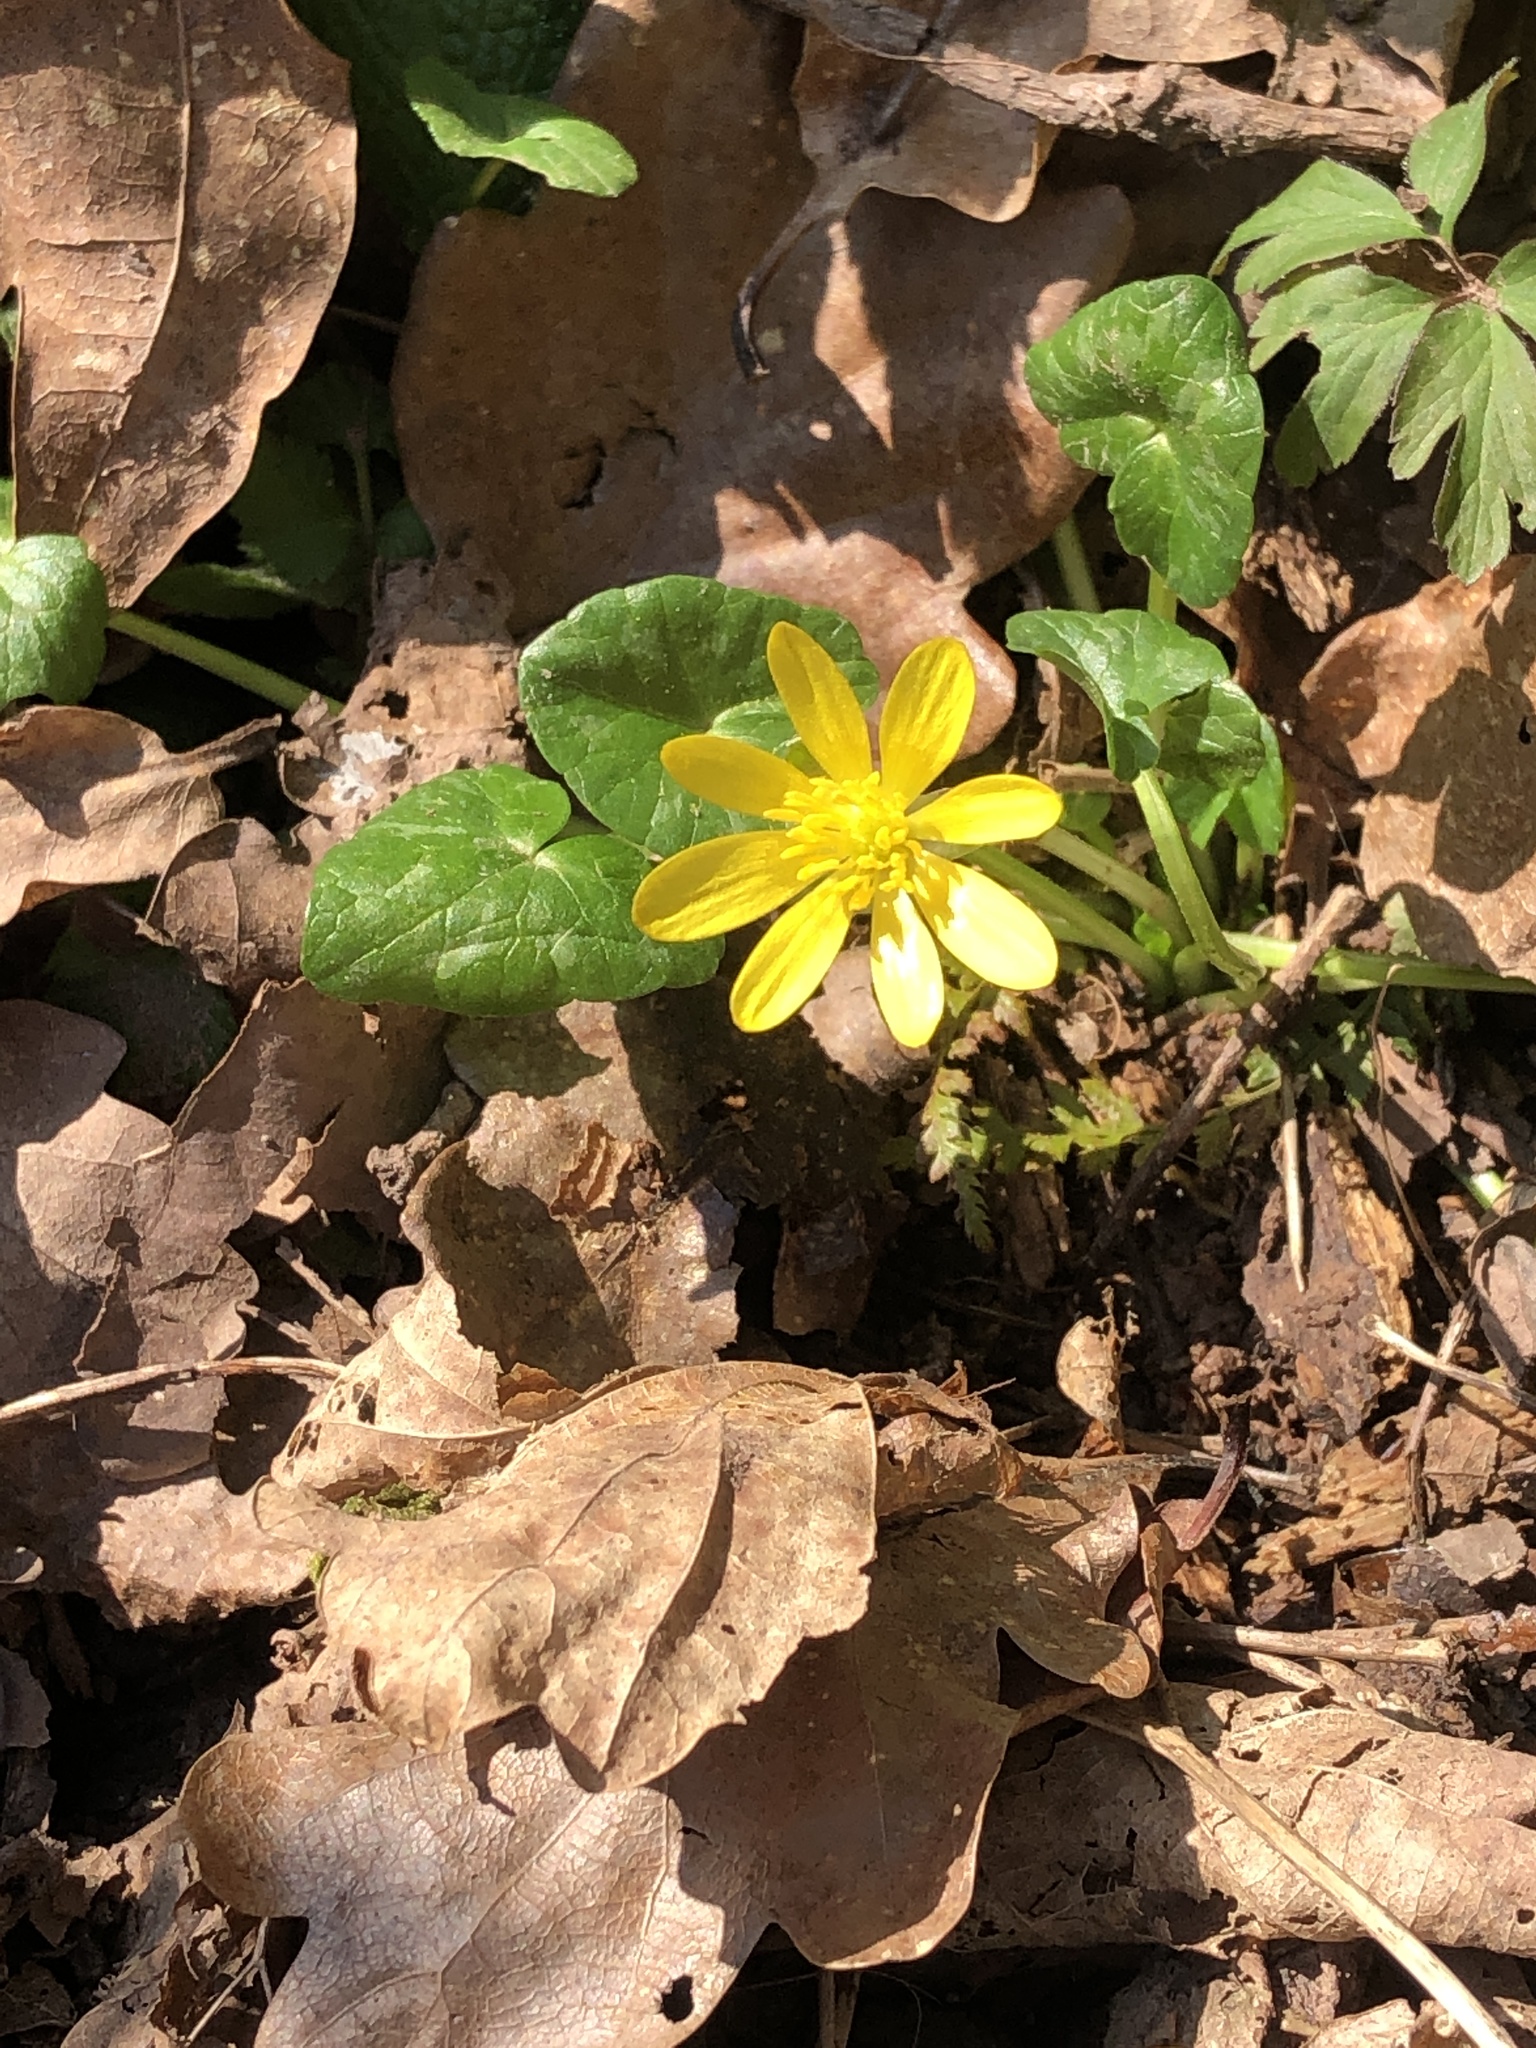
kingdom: Plantae
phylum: Tracheophyta
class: Magnoliopsida
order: Ranunculales
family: Ranunculaceae
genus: Ficaria
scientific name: Ficaria verna
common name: Lesser celandine
